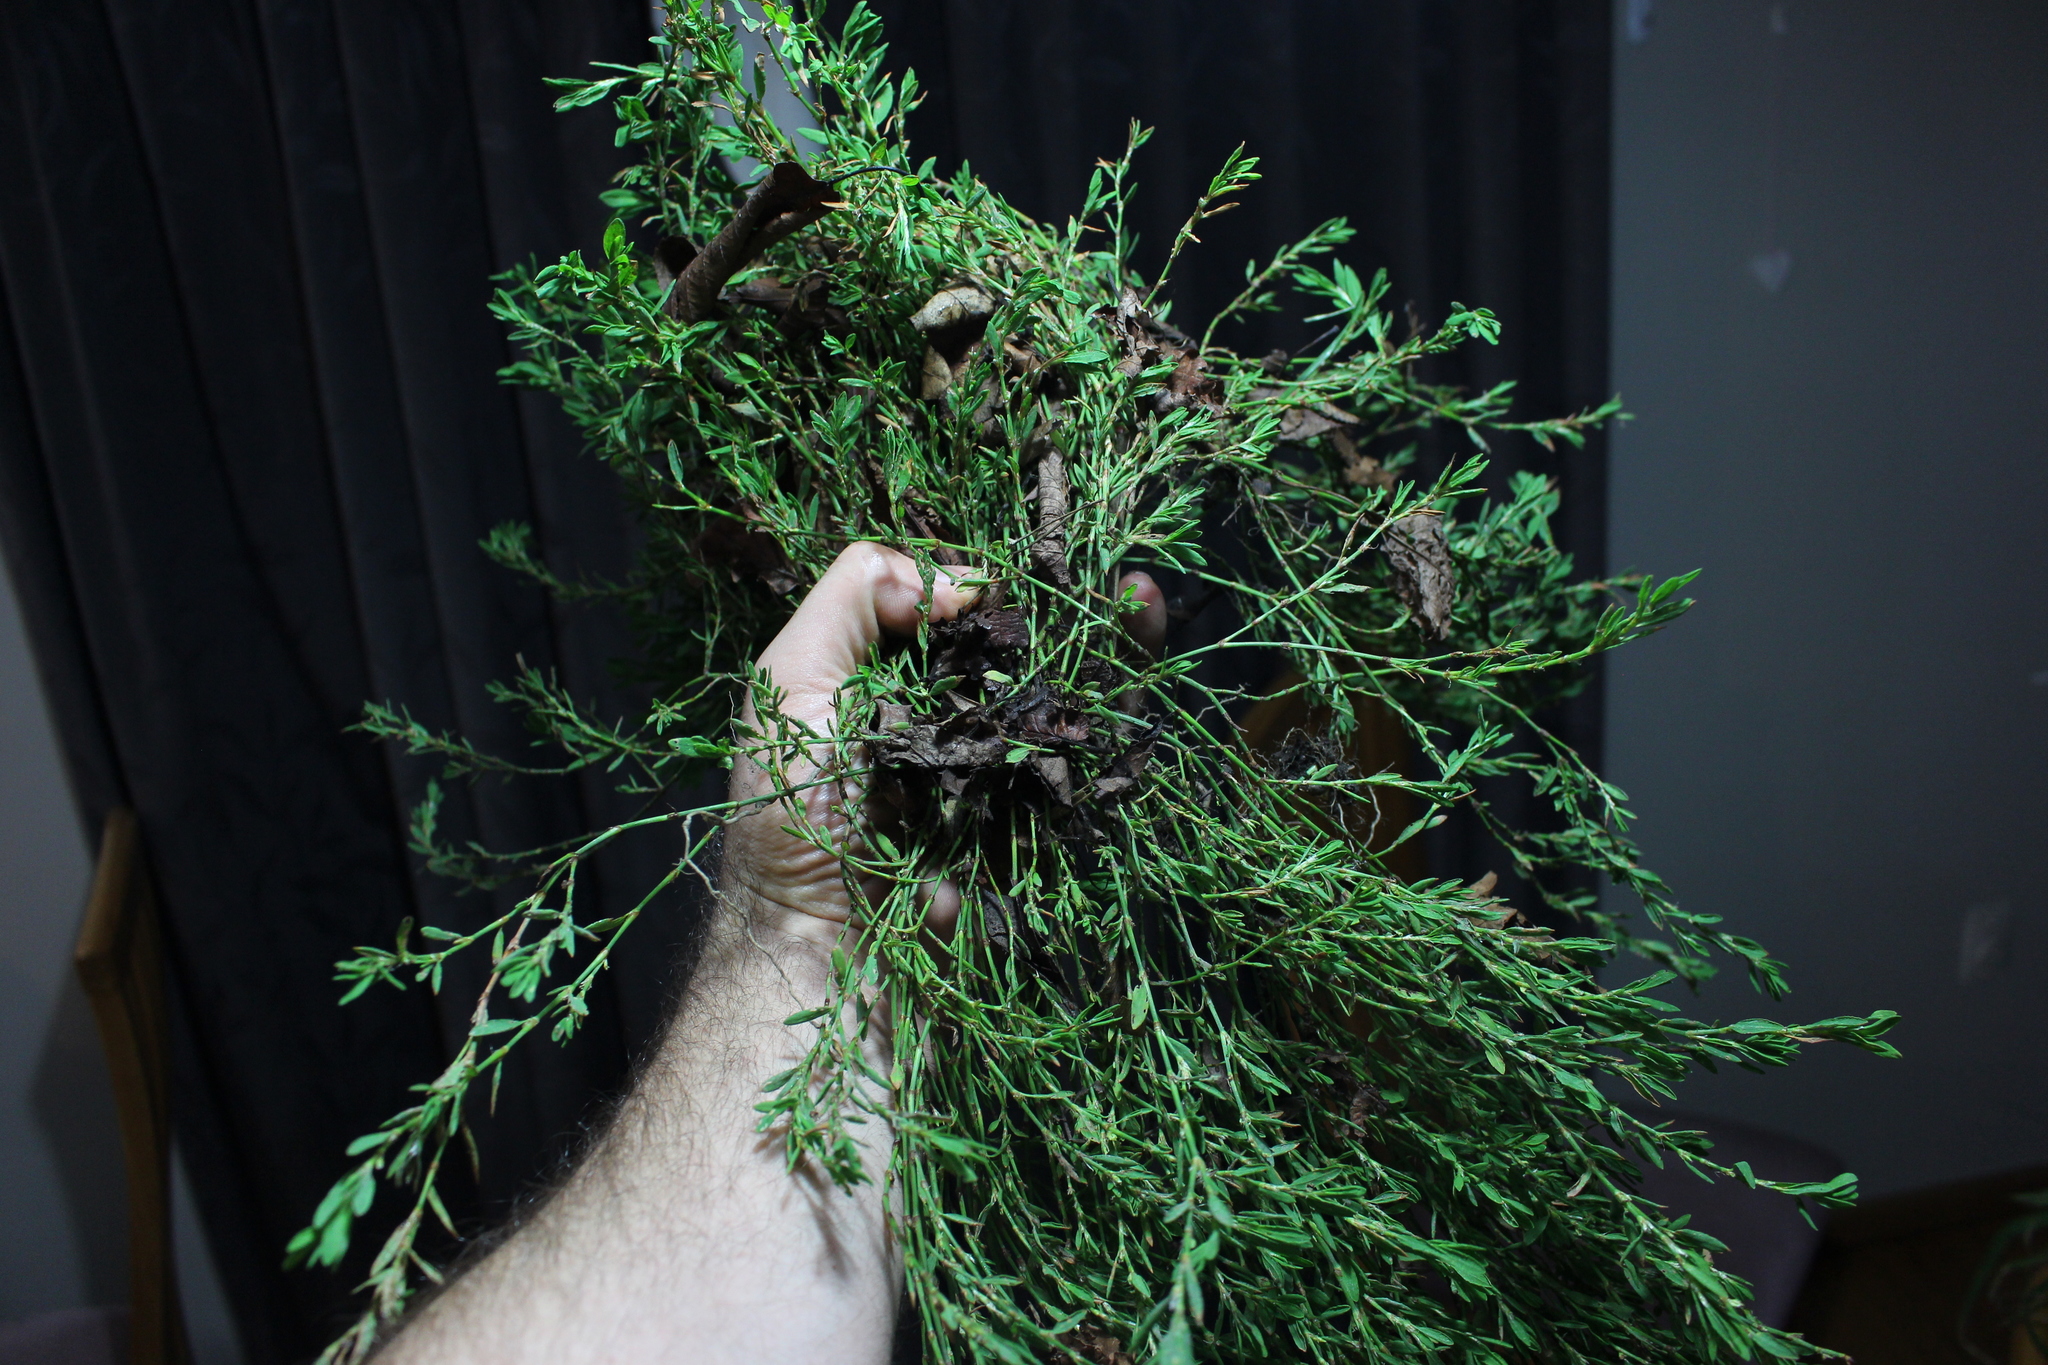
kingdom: Plantae
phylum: Tracheophyta
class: Magnoliopsida
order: Caryophyllales
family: Polygonaceae
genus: Polygonum
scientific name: Polygonum aviculare
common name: Prostrate knotweed
